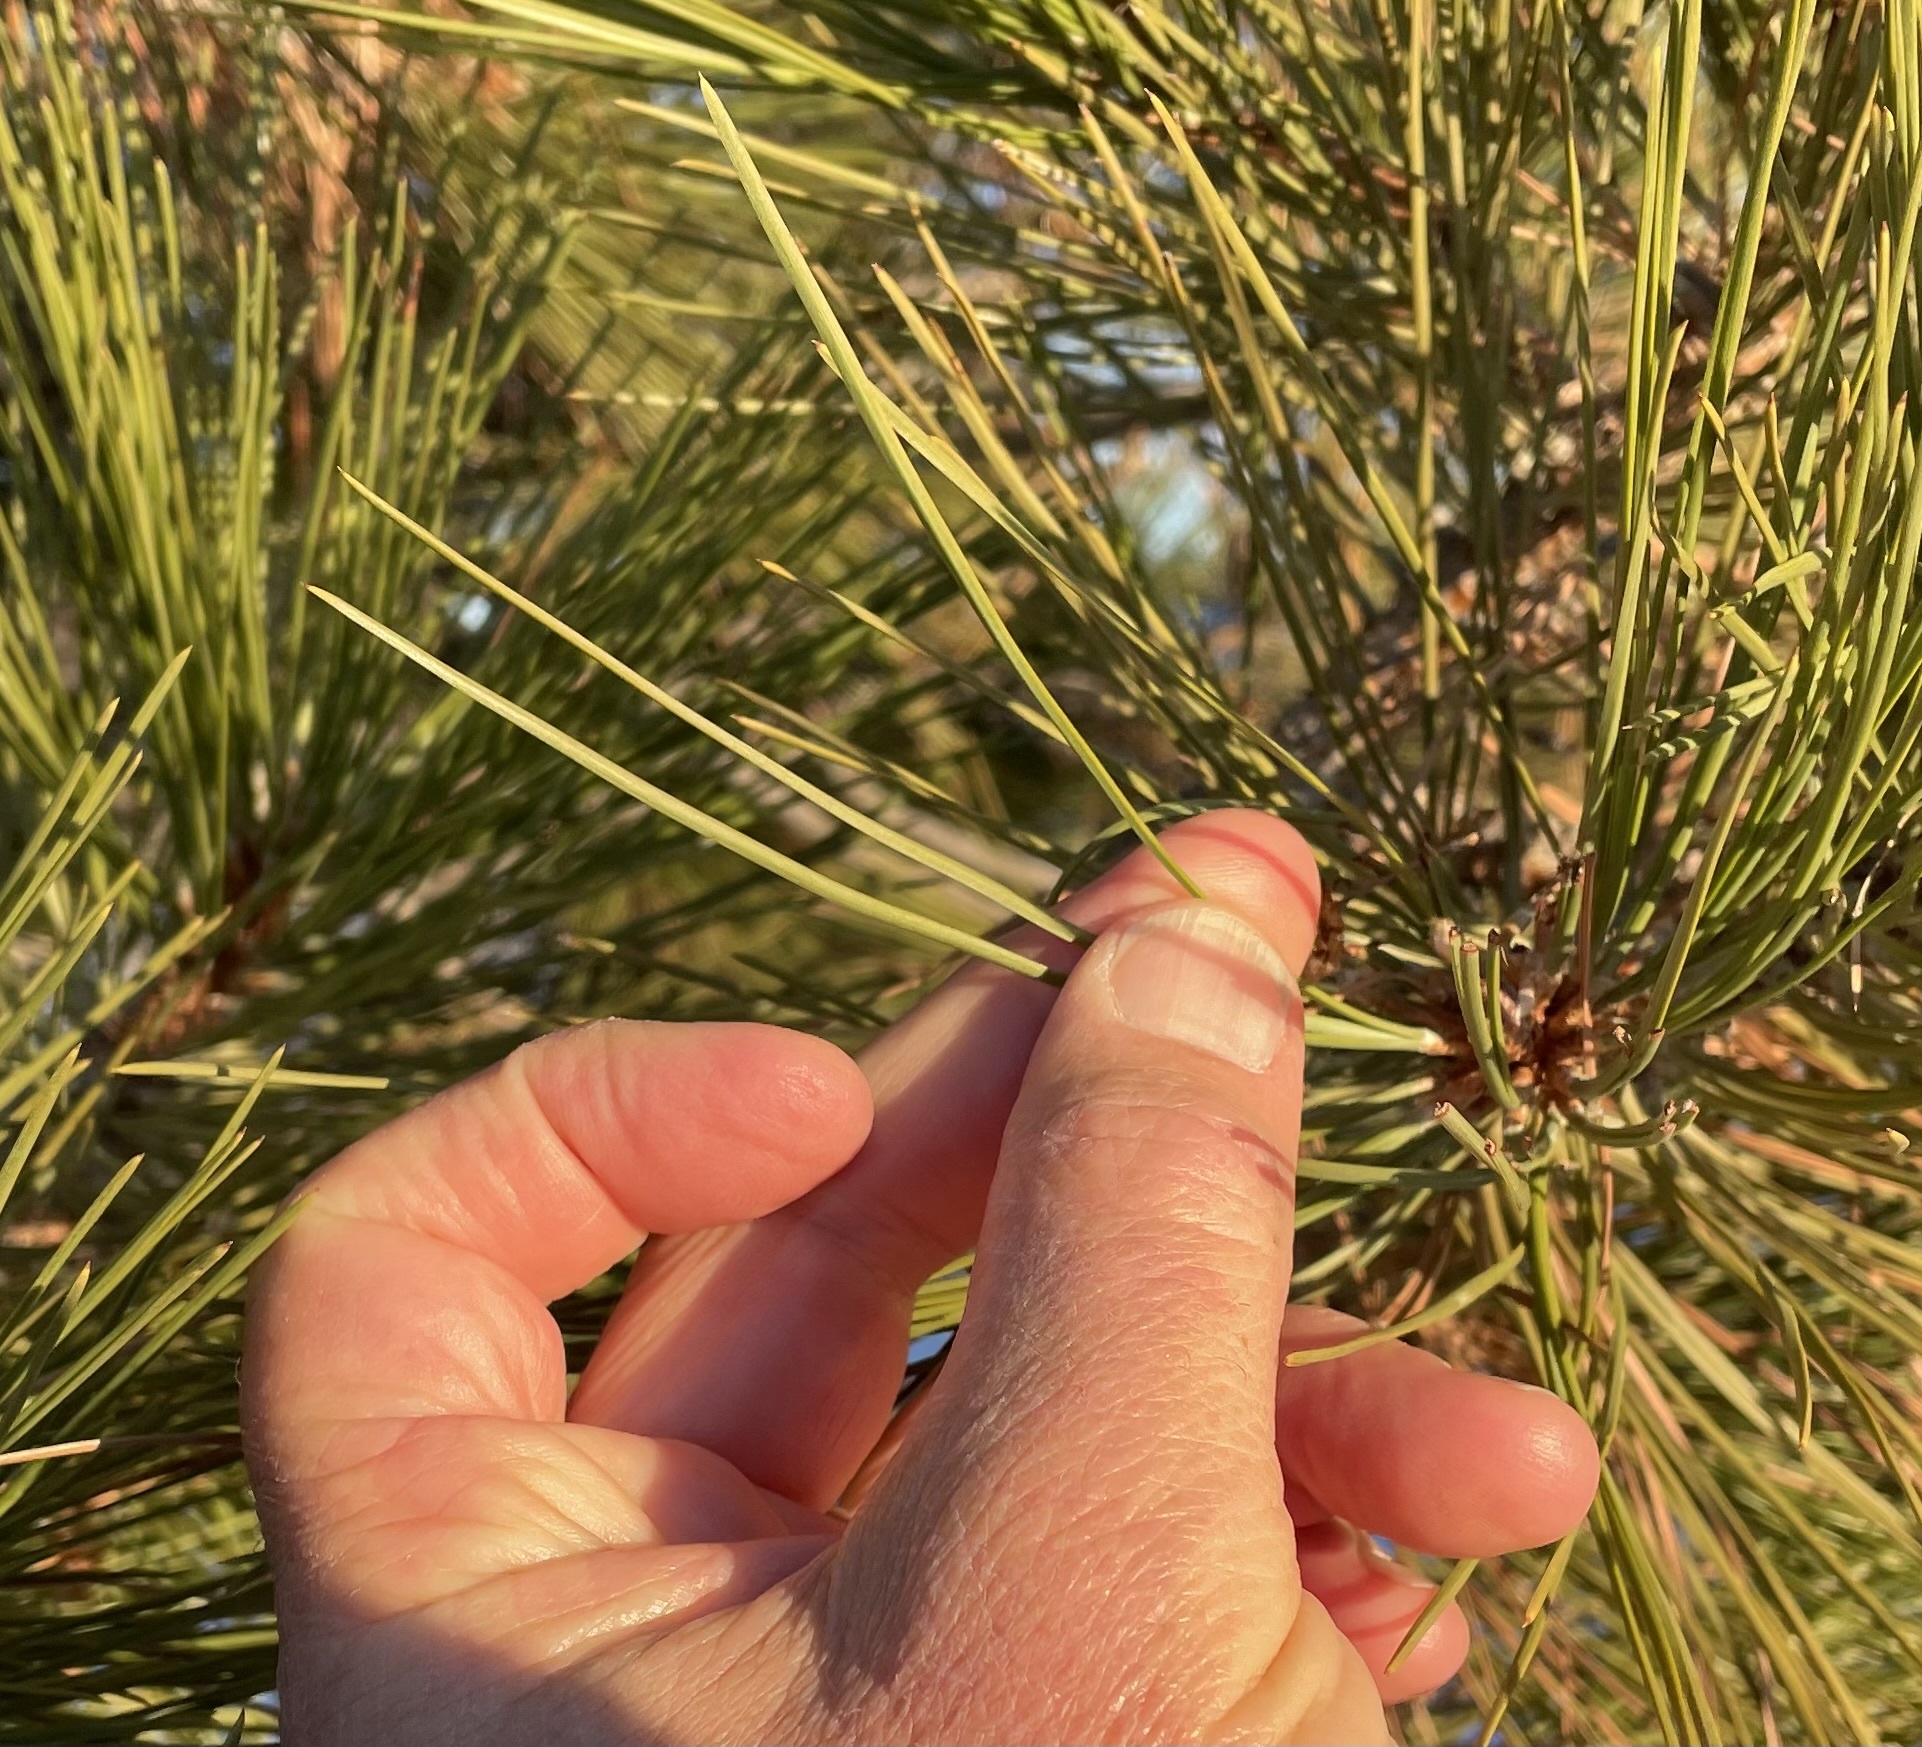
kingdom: Plantae
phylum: Tracheophyta
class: Pinopsida
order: Pinales
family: Pinaceae
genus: Pinus
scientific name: Pinus ponderosa
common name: Western yellow-pine
